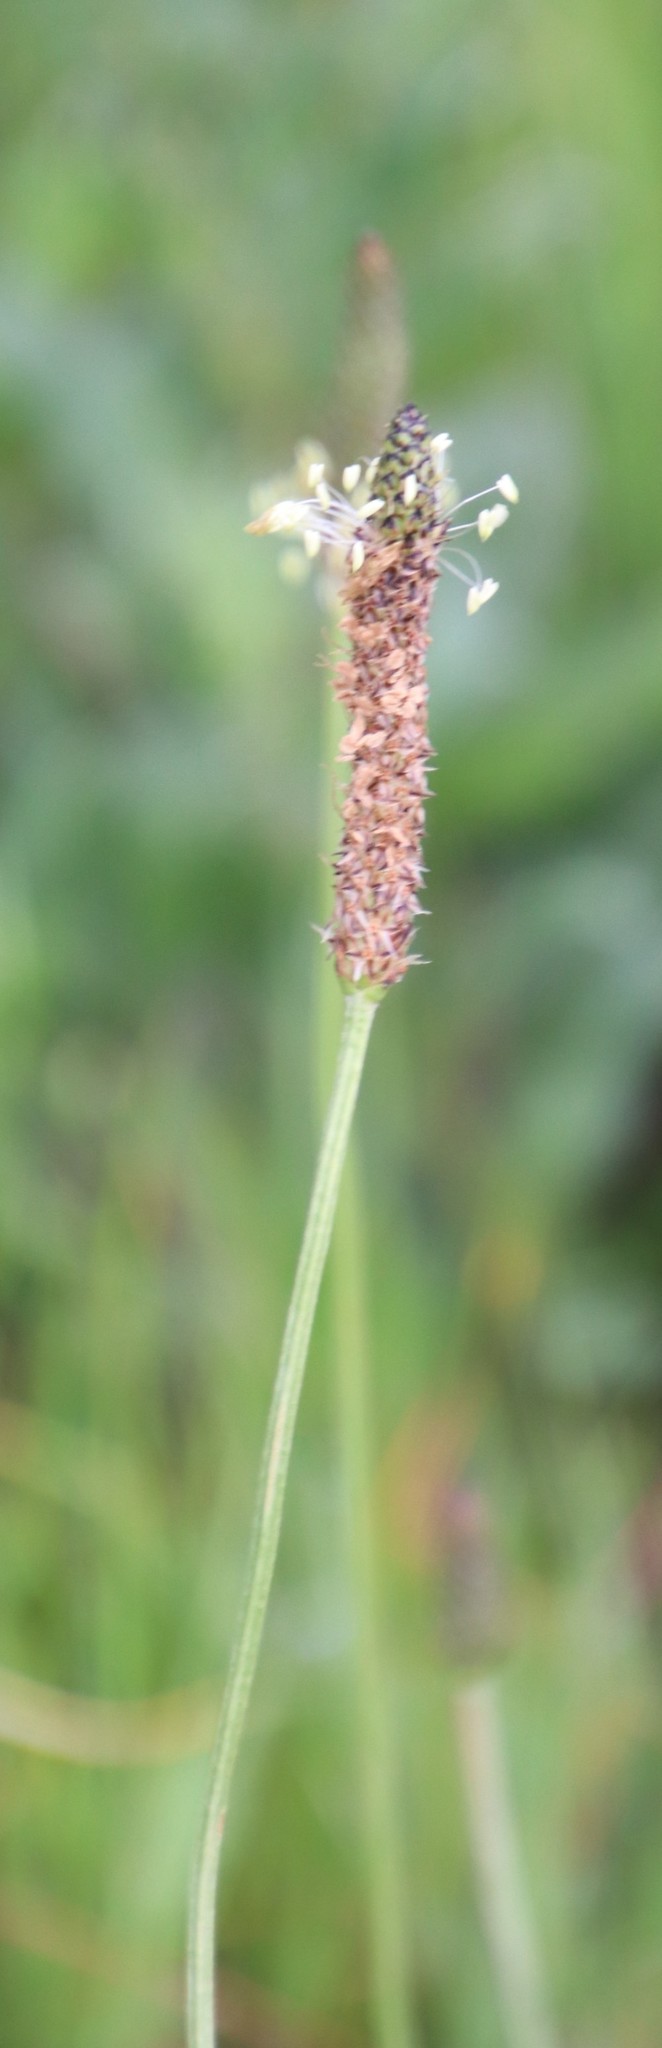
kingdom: Plantae
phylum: Tracheophyta
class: Magnoliopsida
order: Lamiales
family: Plantaginaceae
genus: Plantago
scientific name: Plantago lanceolata
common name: Ribwort plantain
